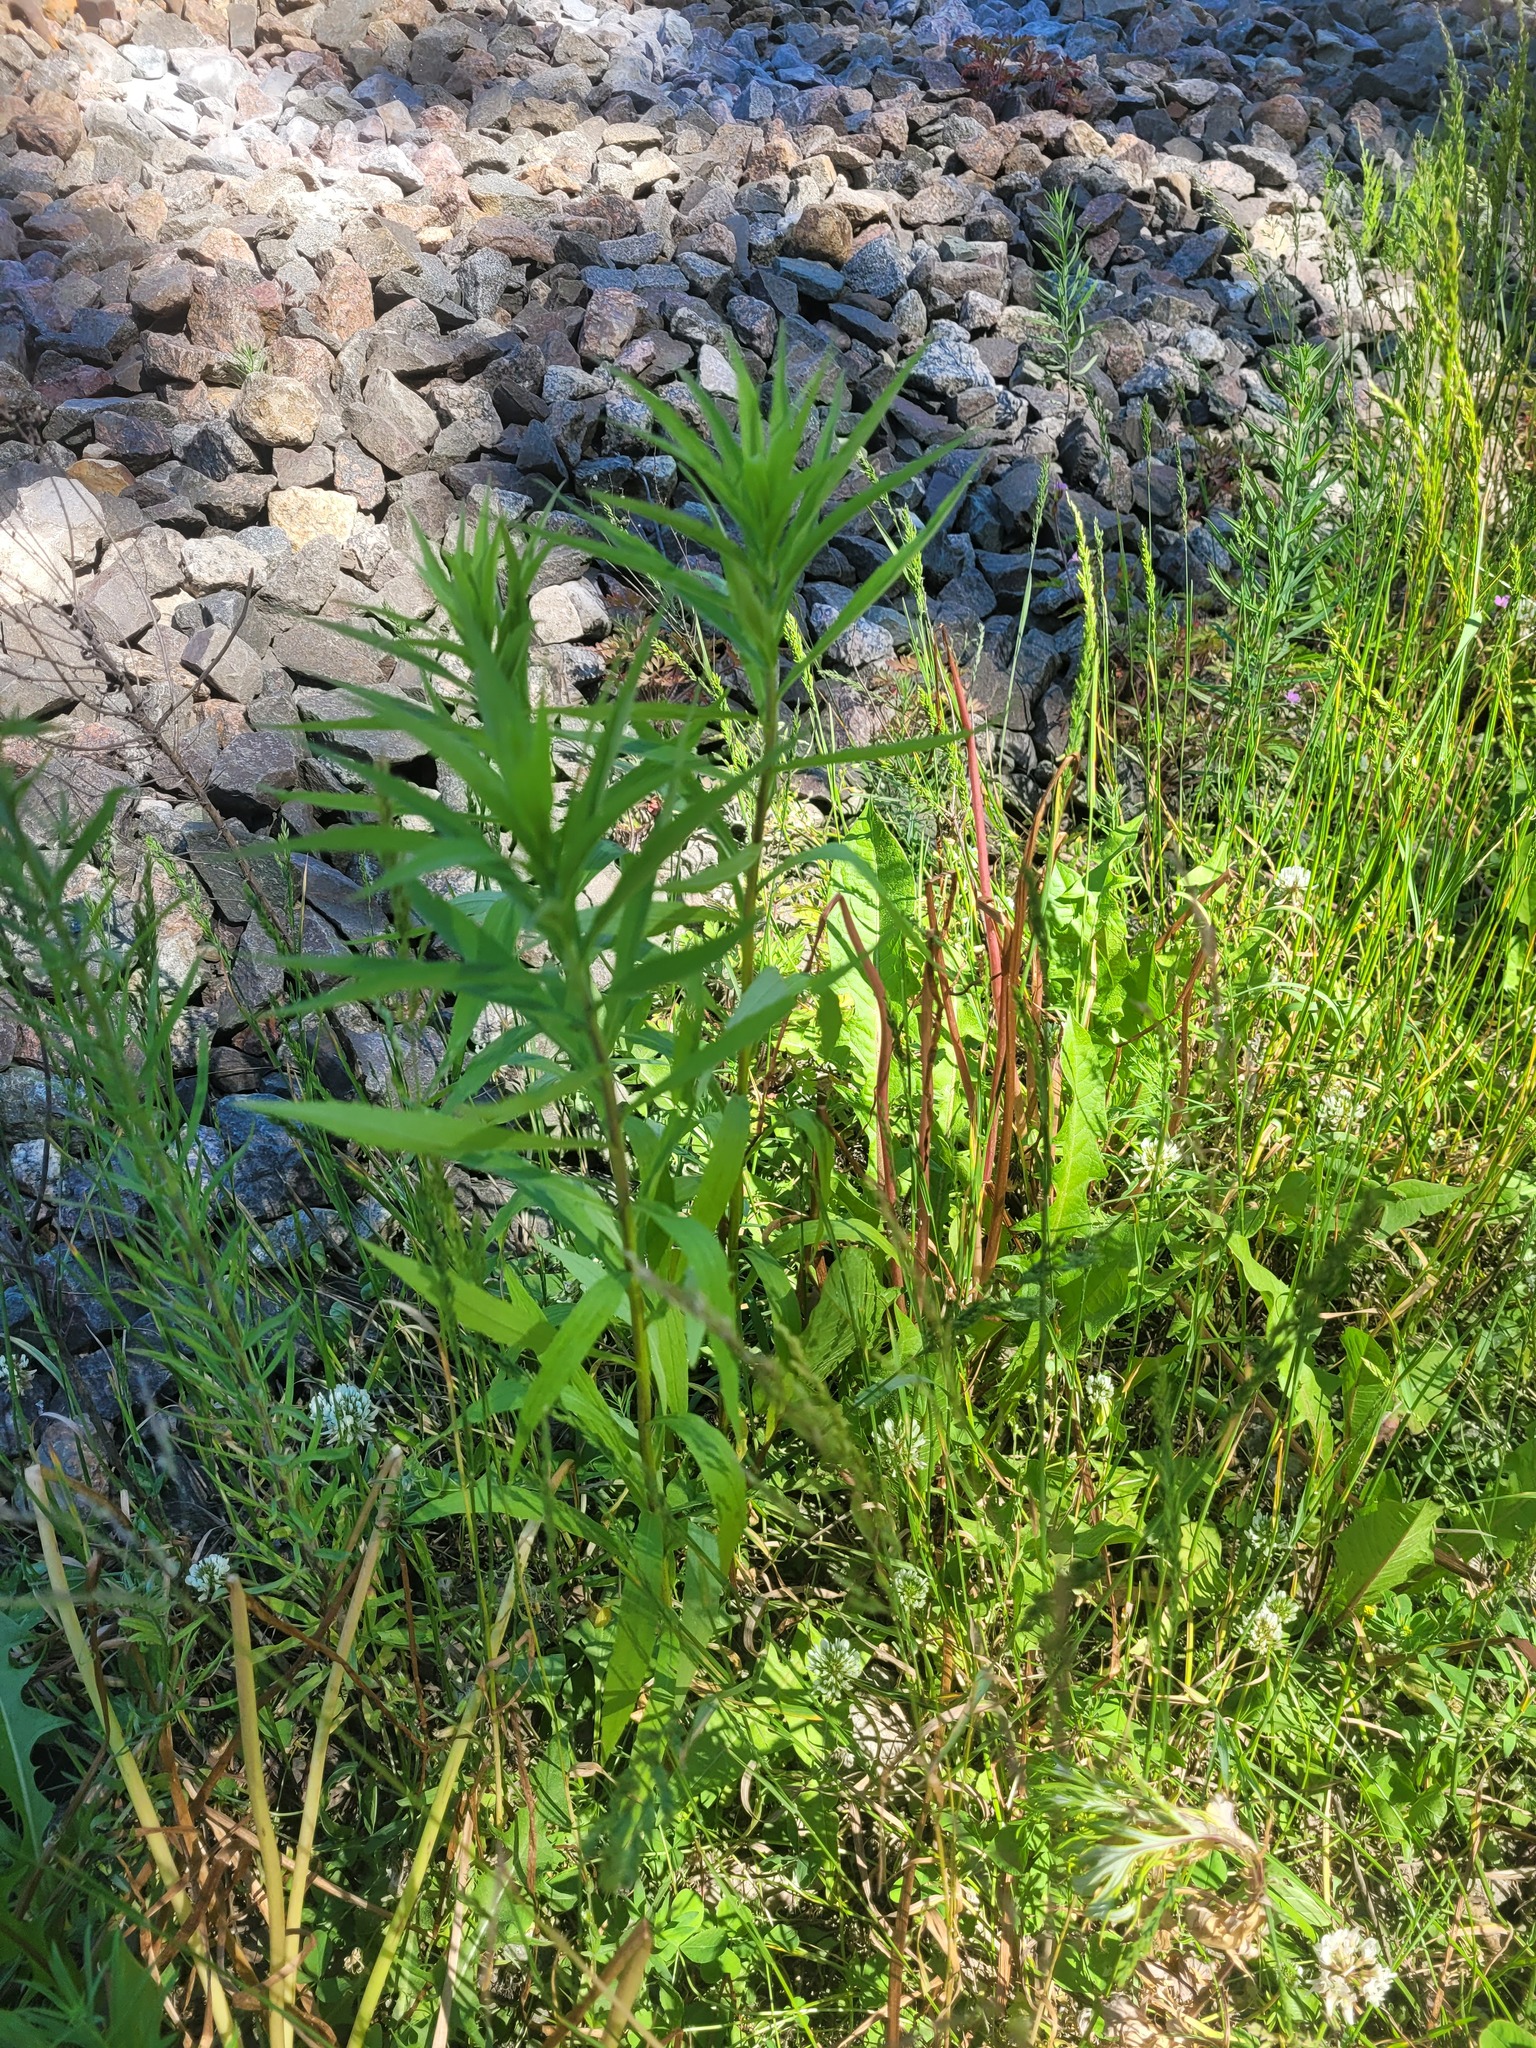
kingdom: Plantae
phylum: Tracheophyta
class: Magnoliopsida
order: Asterales
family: Asteraceae
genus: Solidago
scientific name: Solidago canadensis
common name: Canada goldenrod
